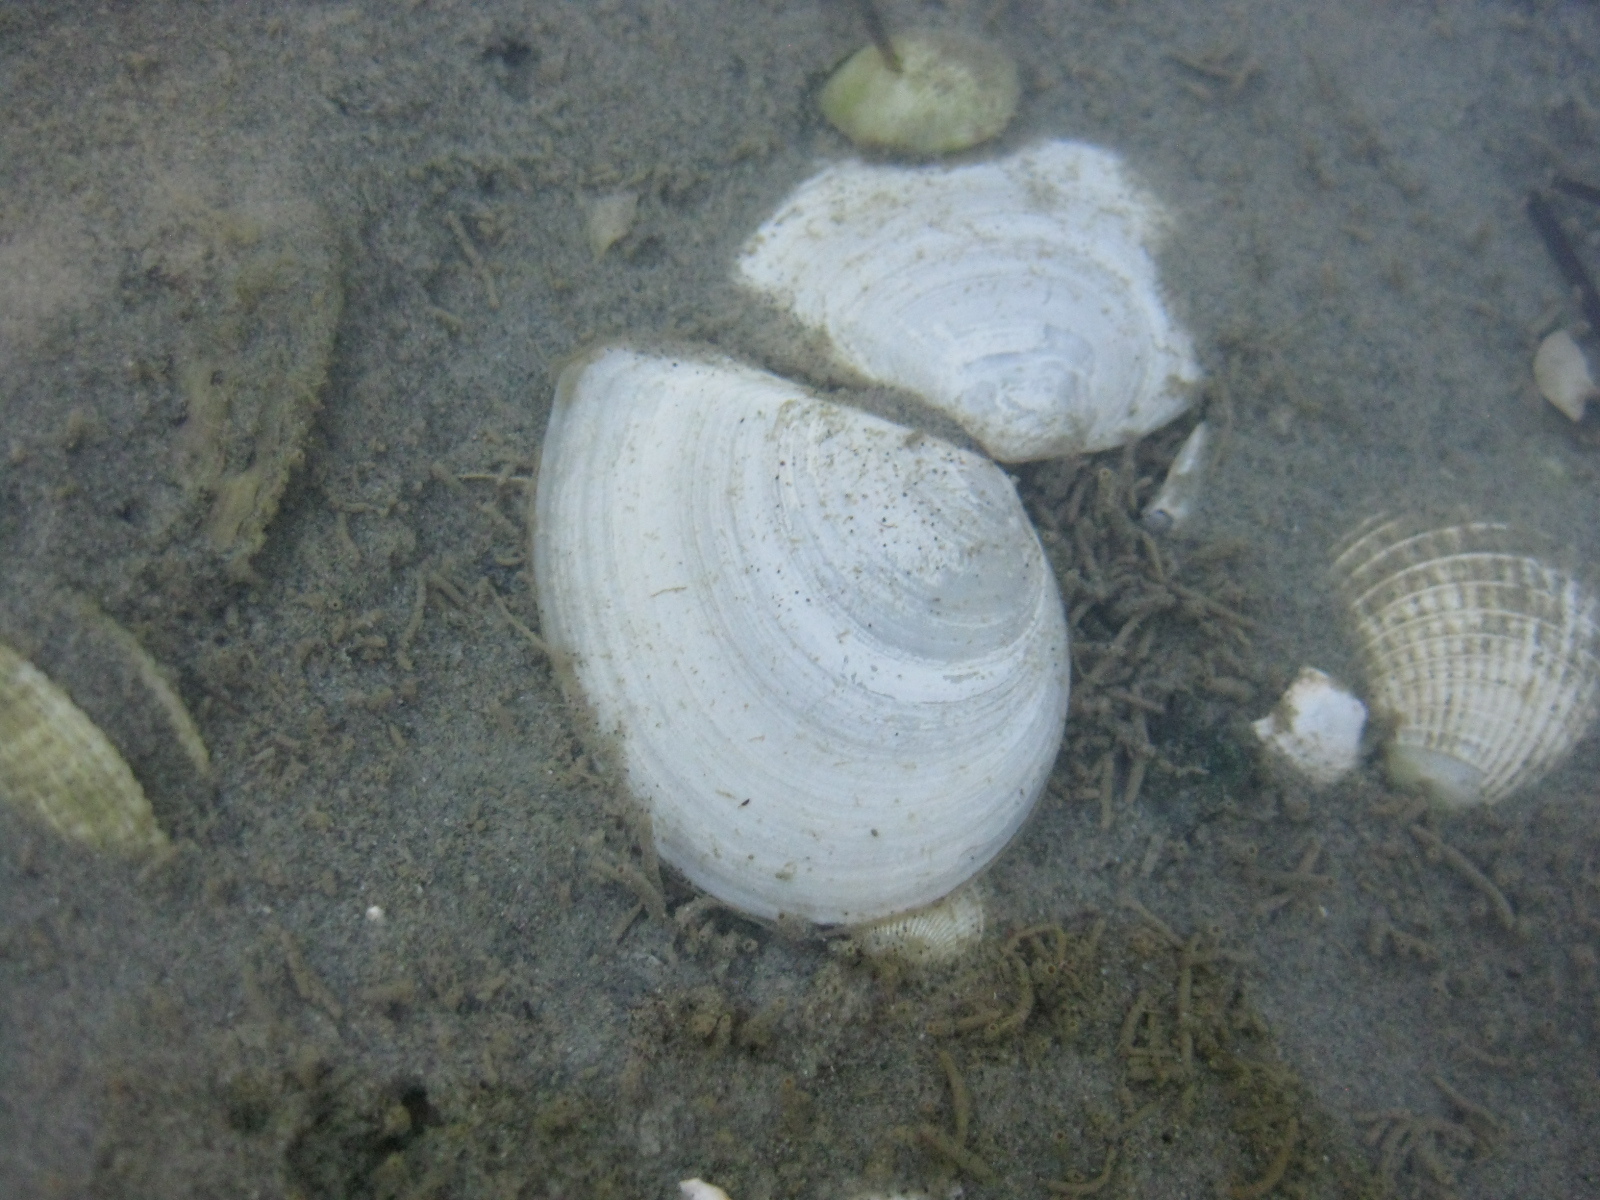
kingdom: Animalia
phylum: Mollusca
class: Bivalvia
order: Cardiida
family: Tellinidae
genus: Macomona
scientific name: Macomona liliana
